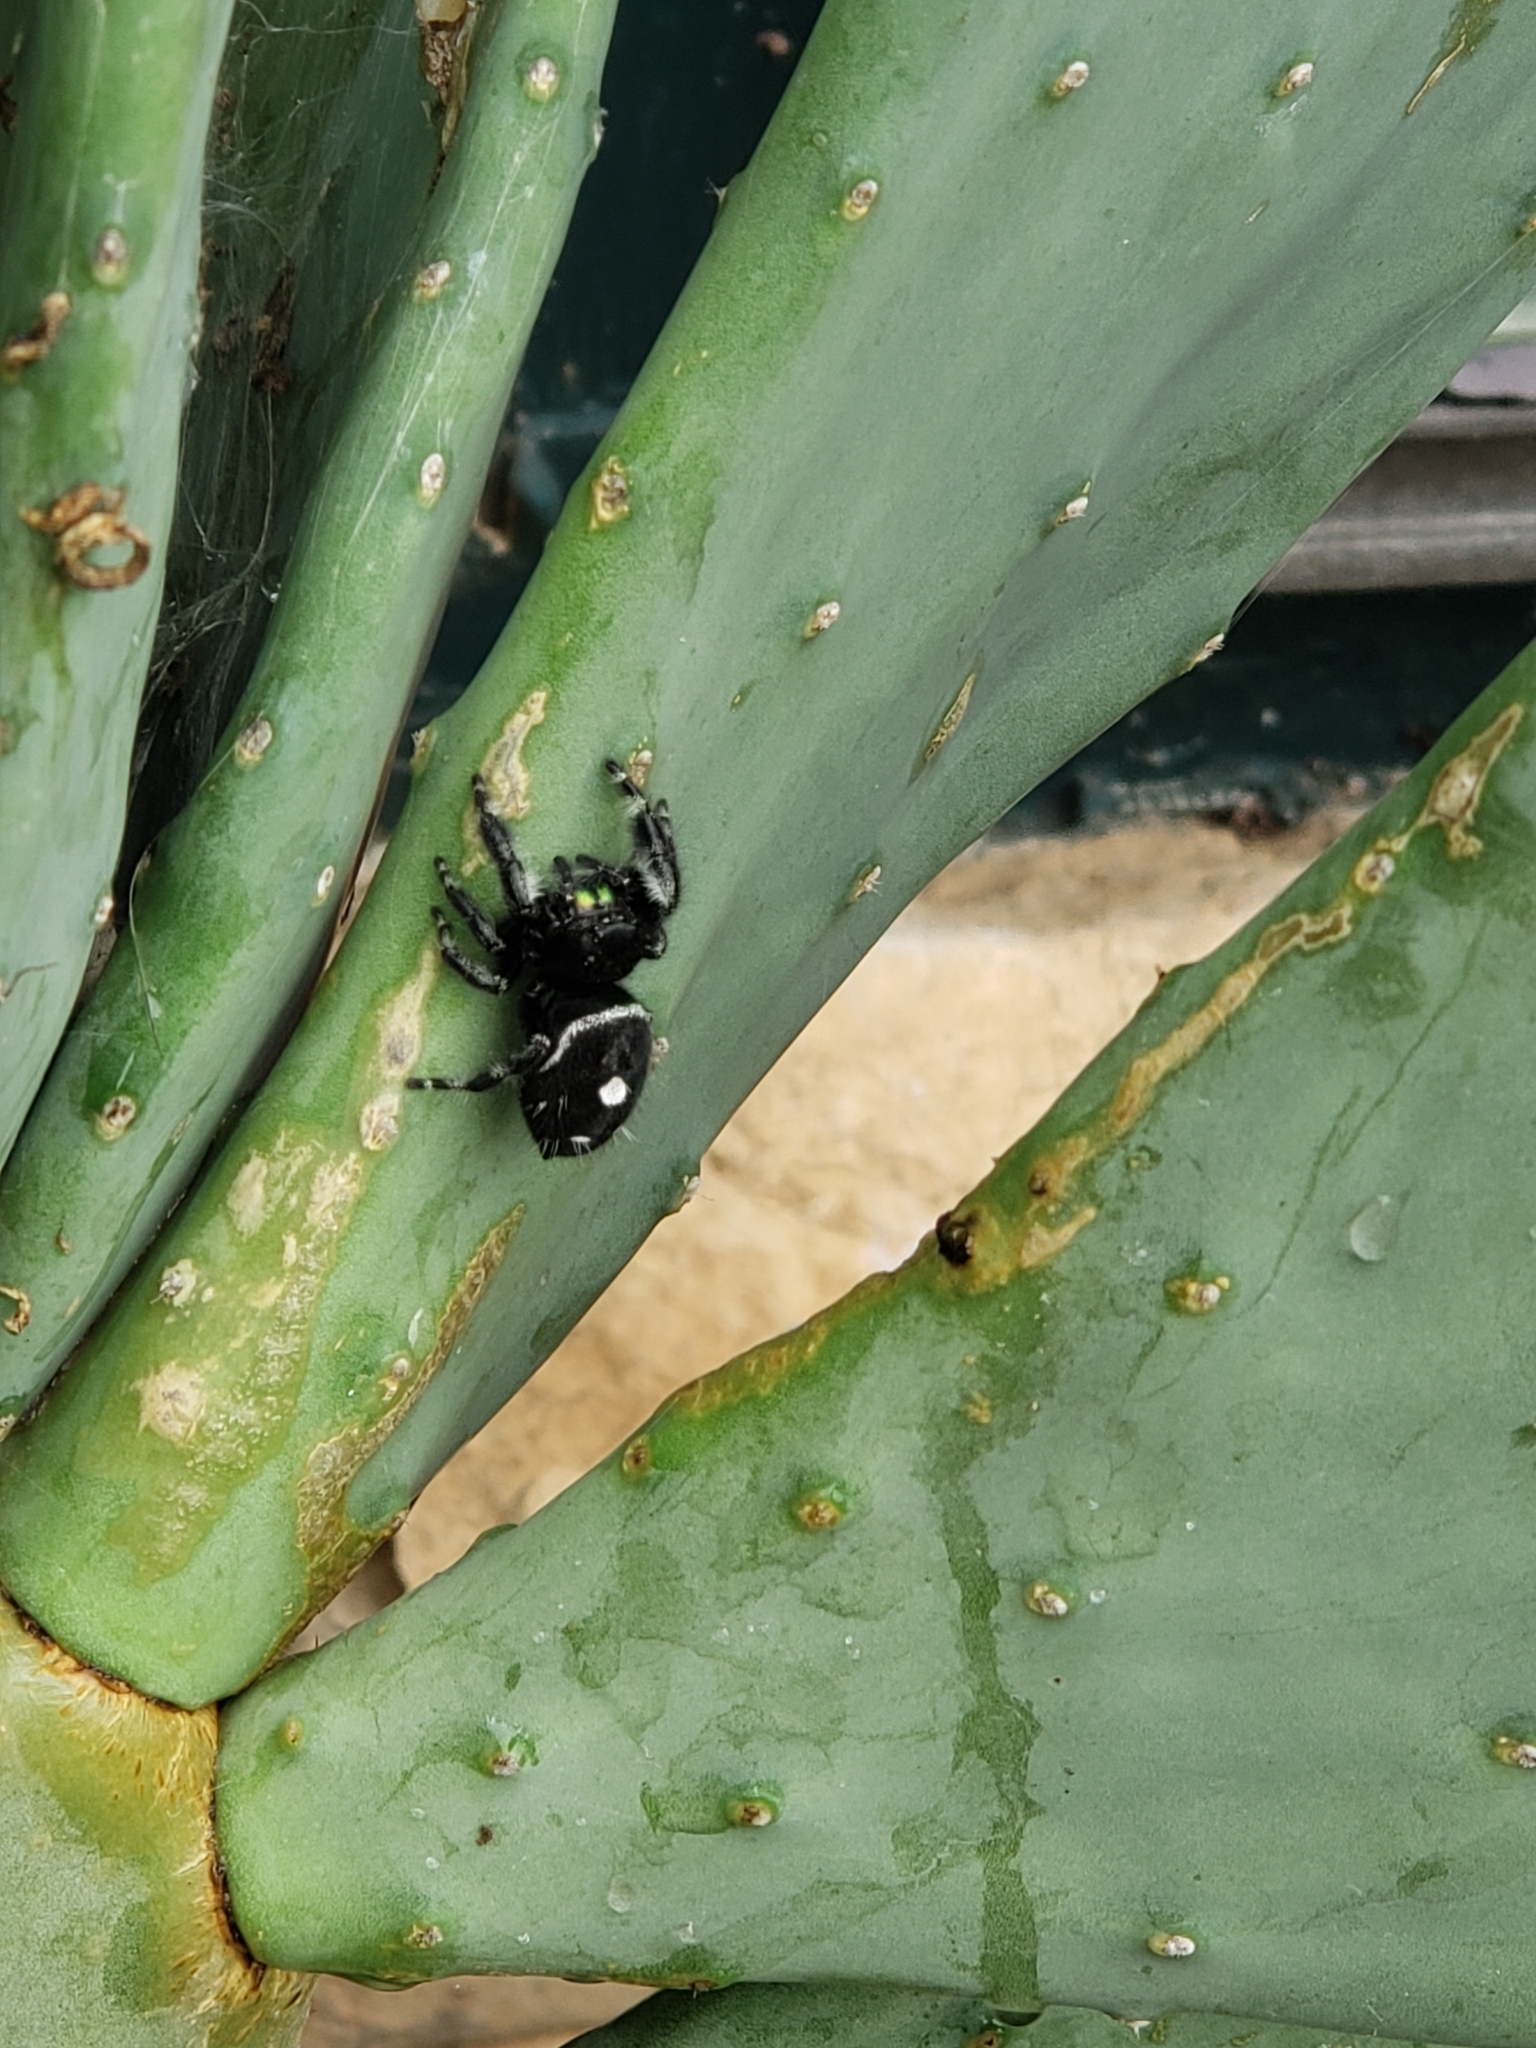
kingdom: Animalia
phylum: Arthropoda
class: Arachnida
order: Araneae
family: Salticidae
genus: Phidippus
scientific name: Phidippus audax
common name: Bold jumper
